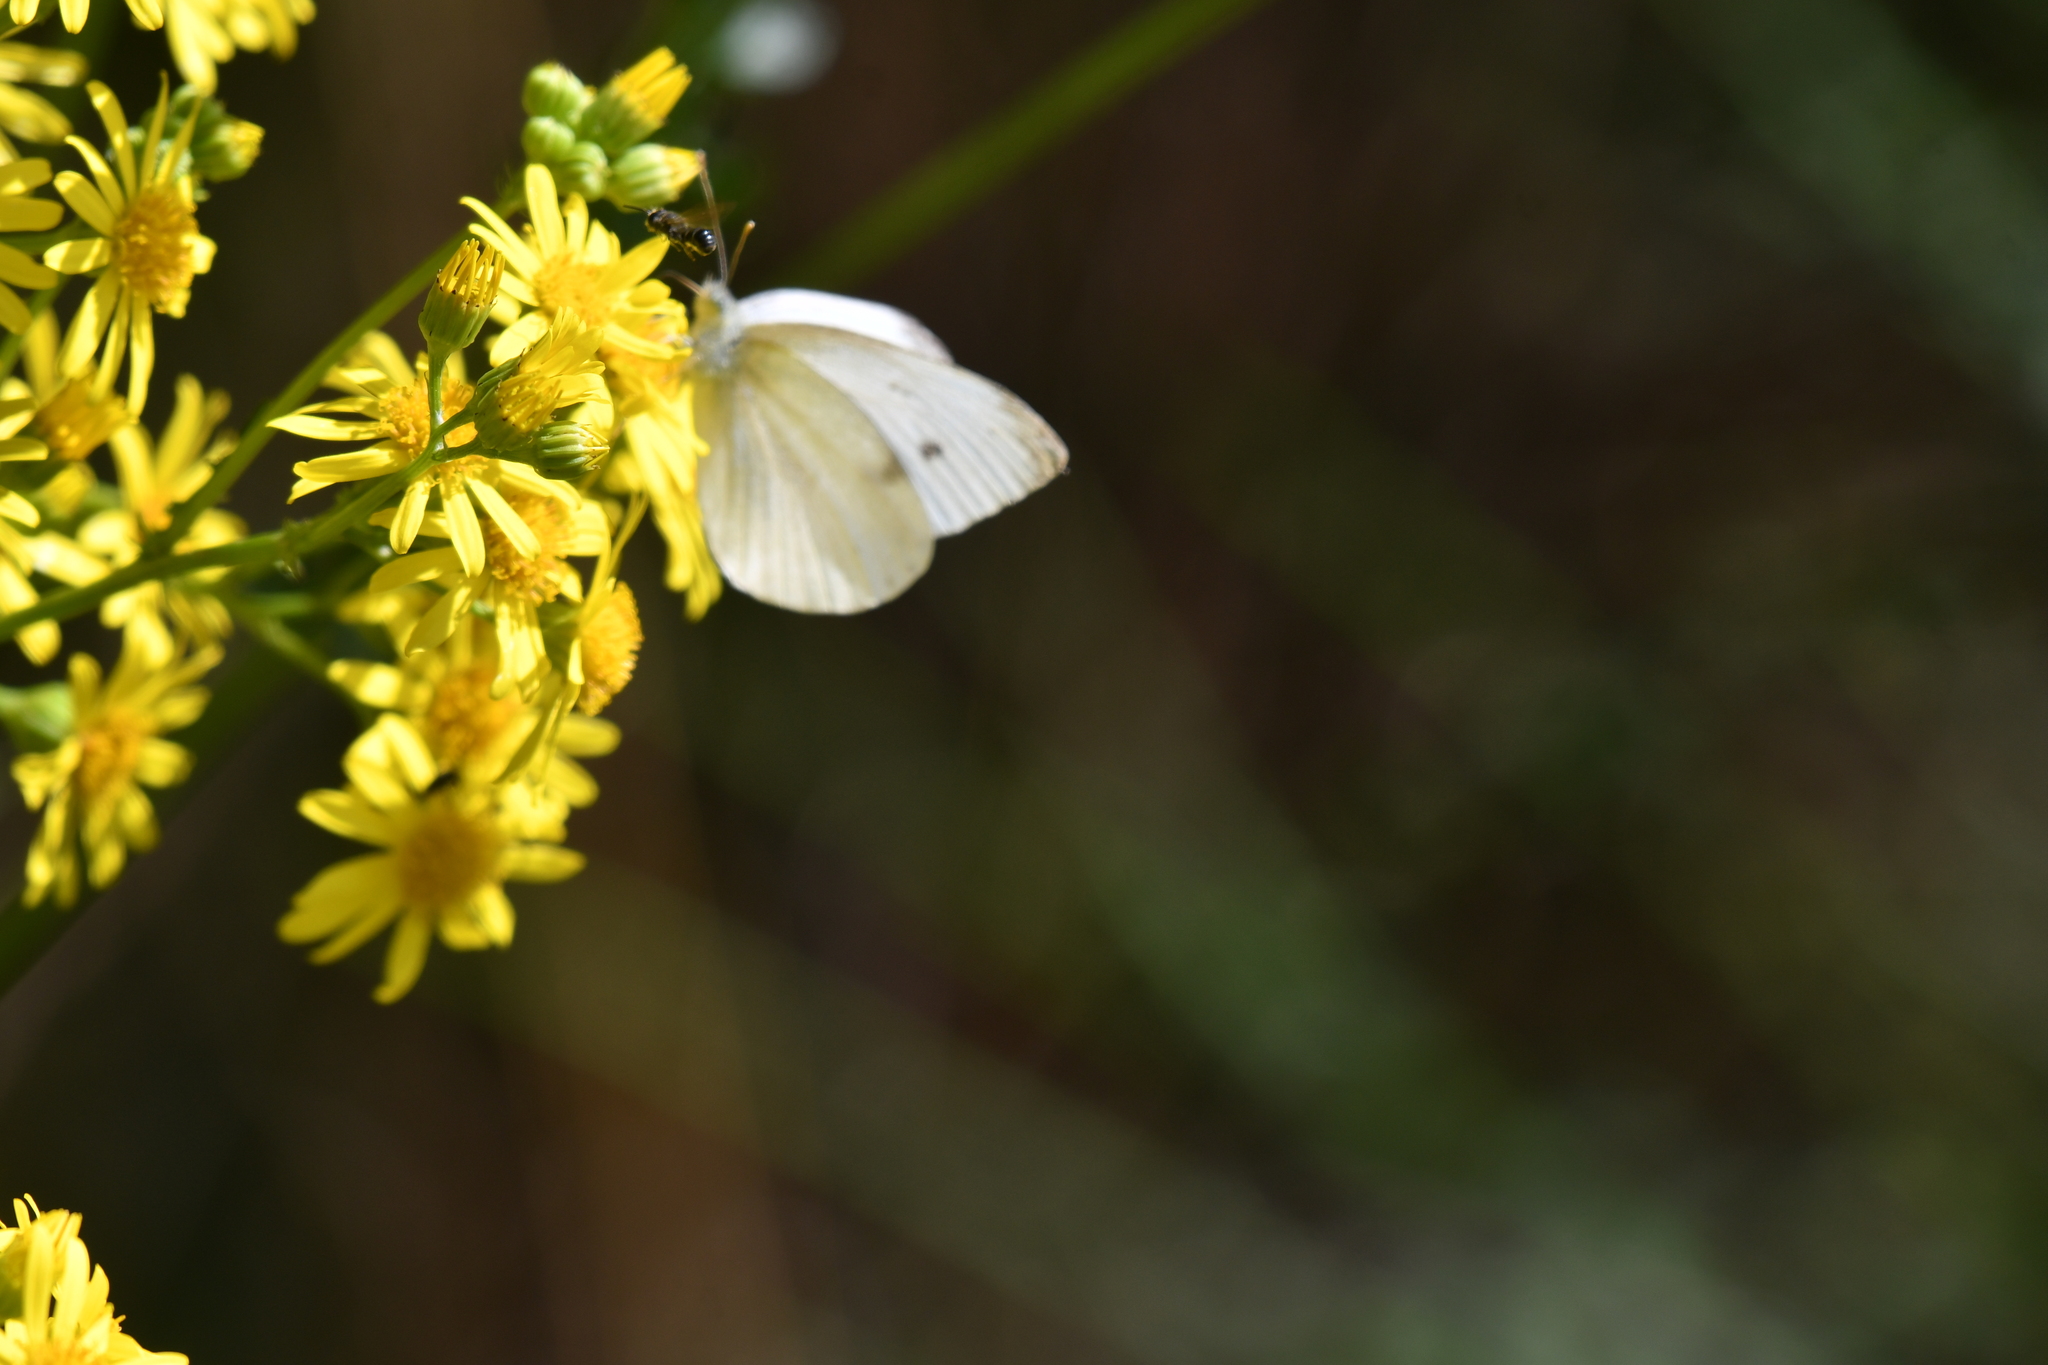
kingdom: Animalia
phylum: Arthropoda
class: Insecta
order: Lepidoptera
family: Pieridae
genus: Pieris
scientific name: Pieris rapae
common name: Small white
